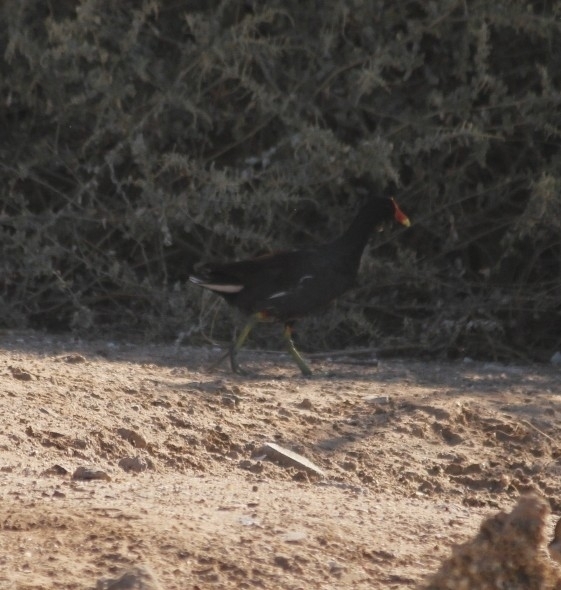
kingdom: Animalia
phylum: Chordata
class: Aves
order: Gruiformes
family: Rallidae
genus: Gallinula
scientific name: Gallinula chloropus
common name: Common moorhen
